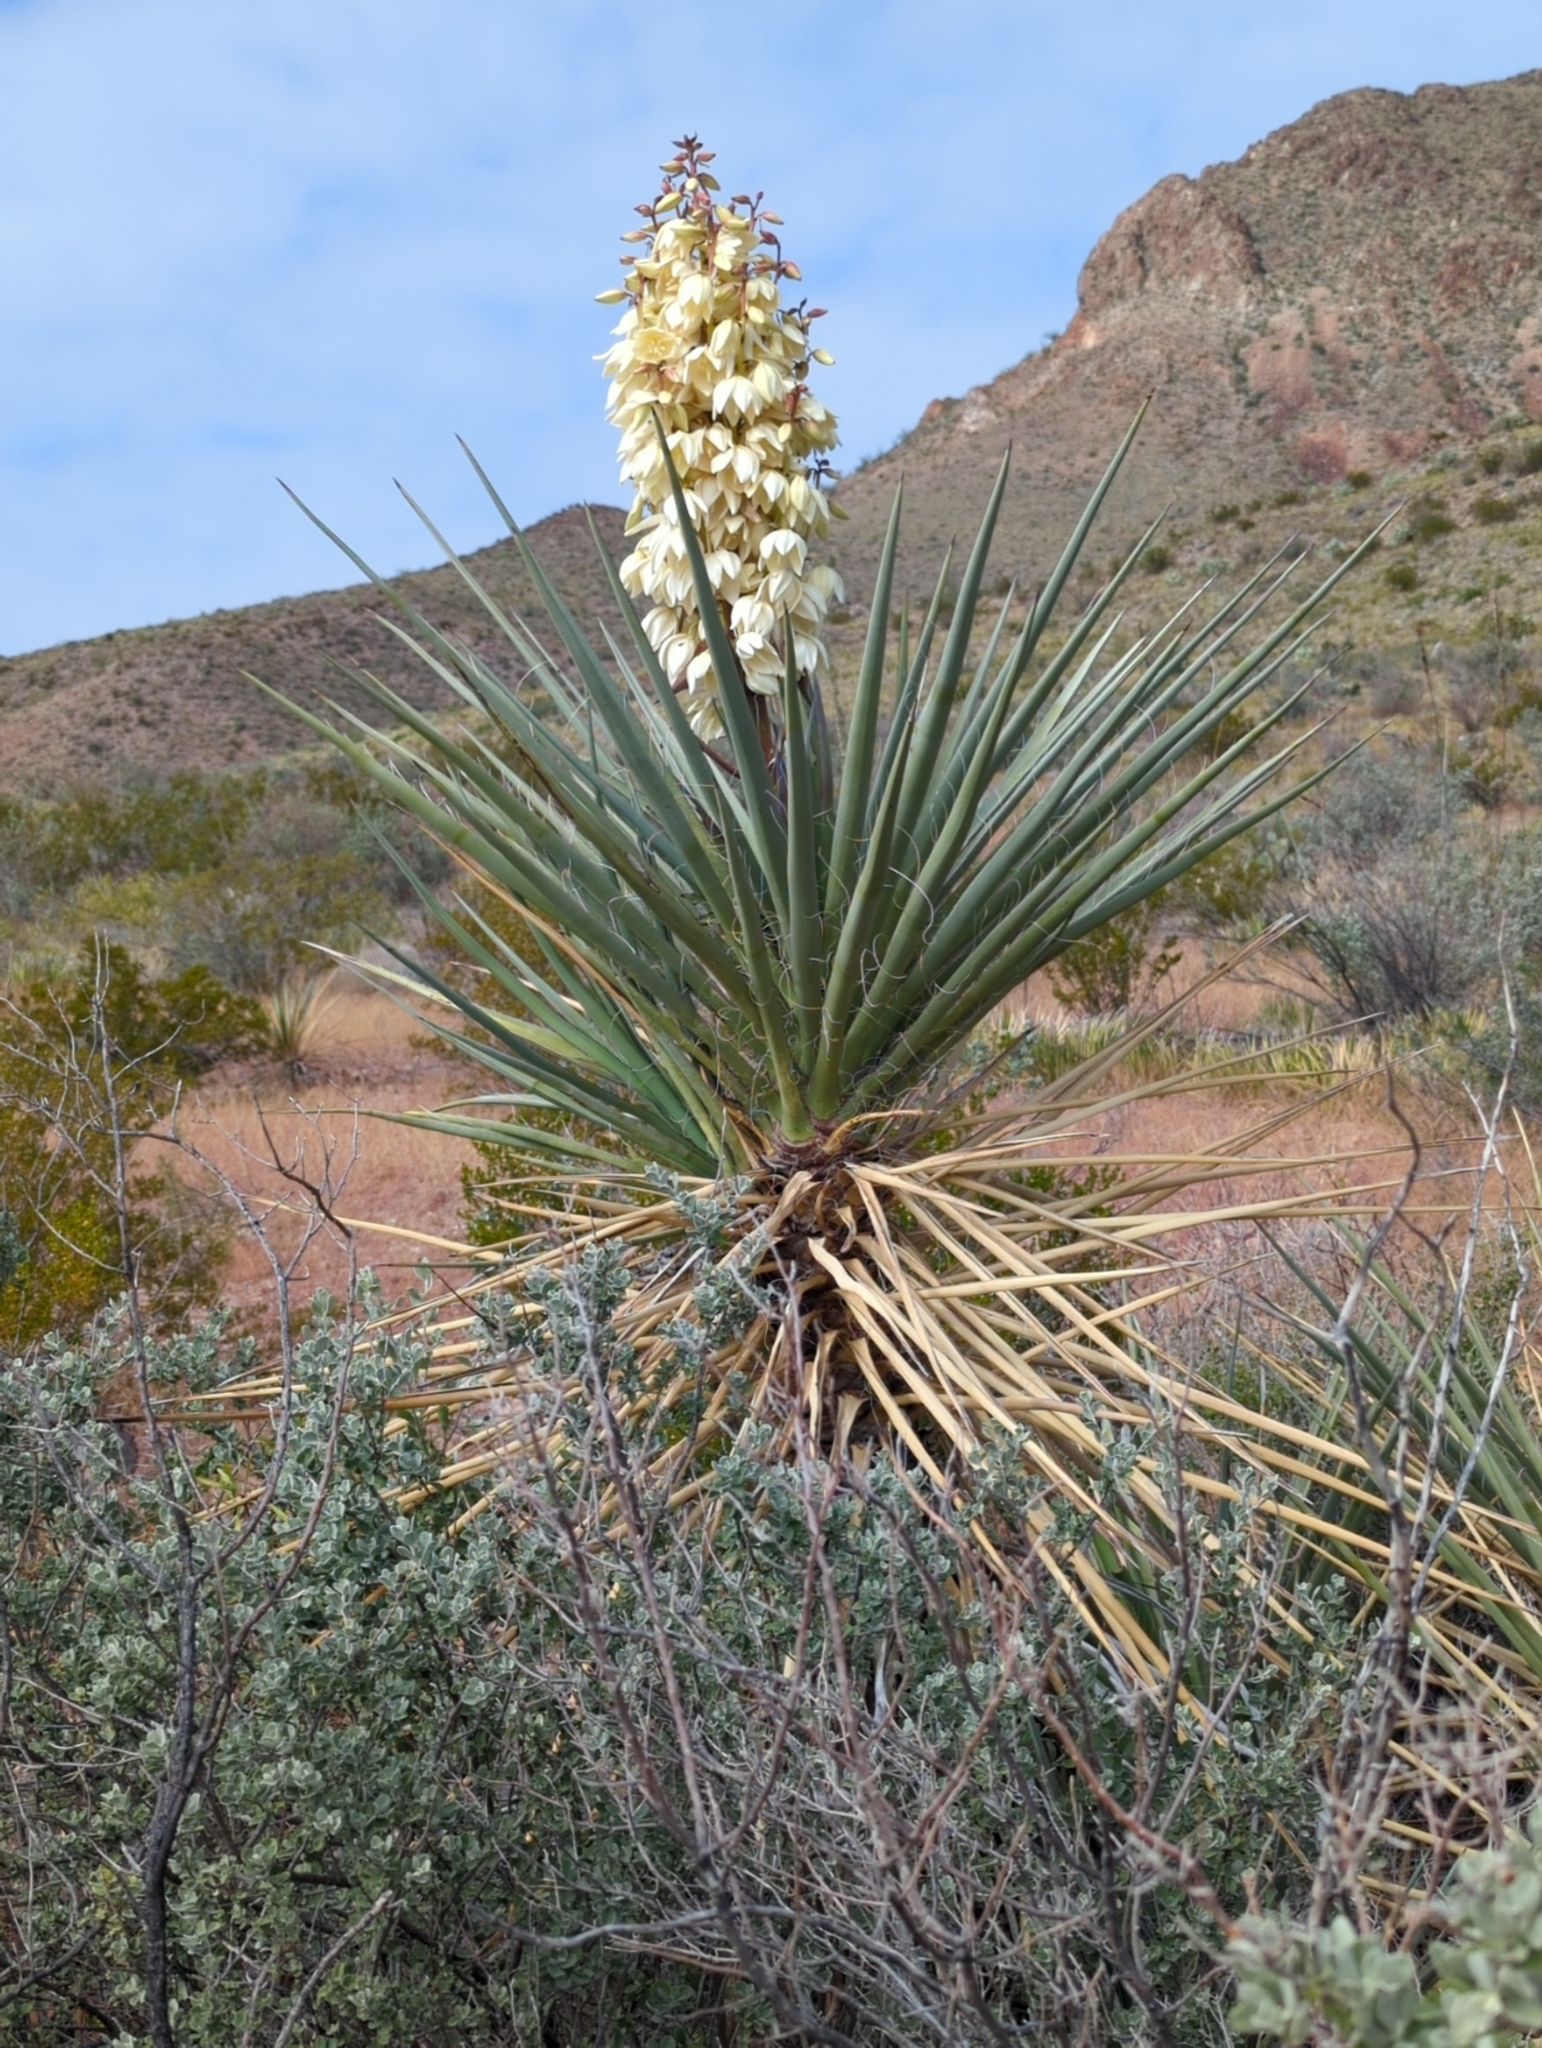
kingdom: Plantae
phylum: Tracheophyta
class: Liliopsida
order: Asparagales
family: Asparagaceae
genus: Yucca
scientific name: Yucca treculiana
